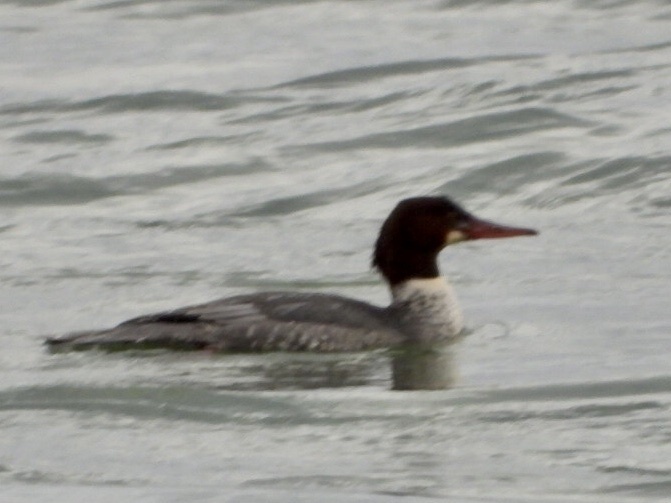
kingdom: Animalia
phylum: Chordata
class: Aves
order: Anseriformes
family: Anatidae
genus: Mergus
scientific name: Mergus merganser
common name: Common merganser
